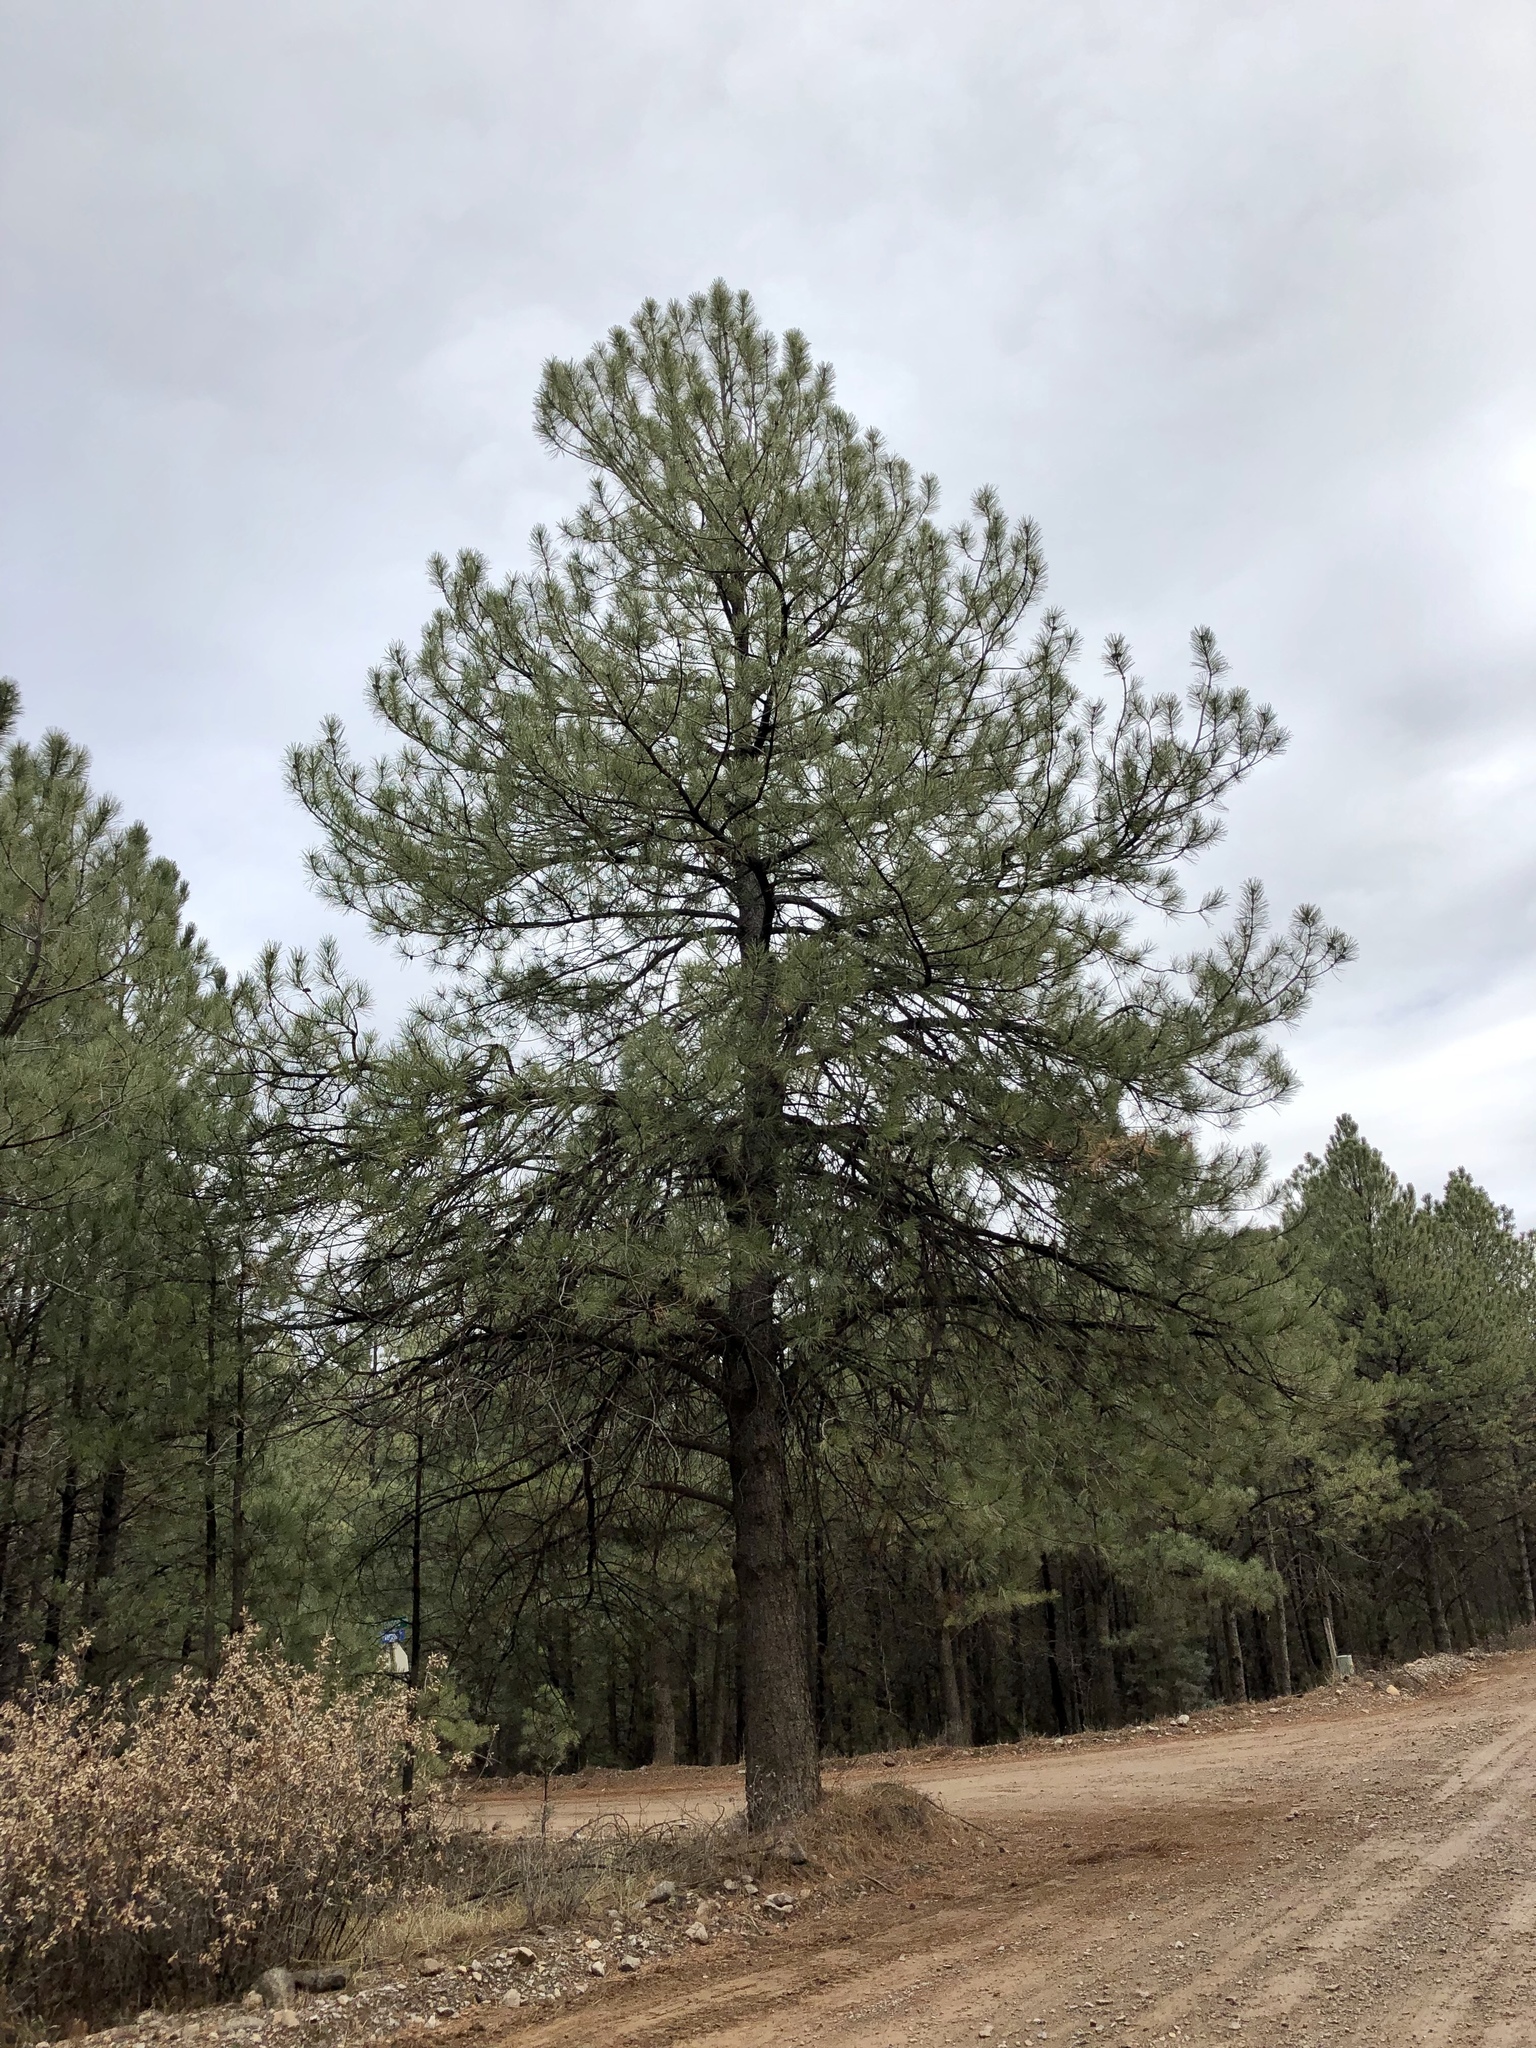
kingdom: Plantae
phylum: Tracheophyta
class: Pinopsida
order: Pinales
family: Pinaceae
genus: Pinus
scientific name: Pinus ponderosa
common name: Western yellow-pine
